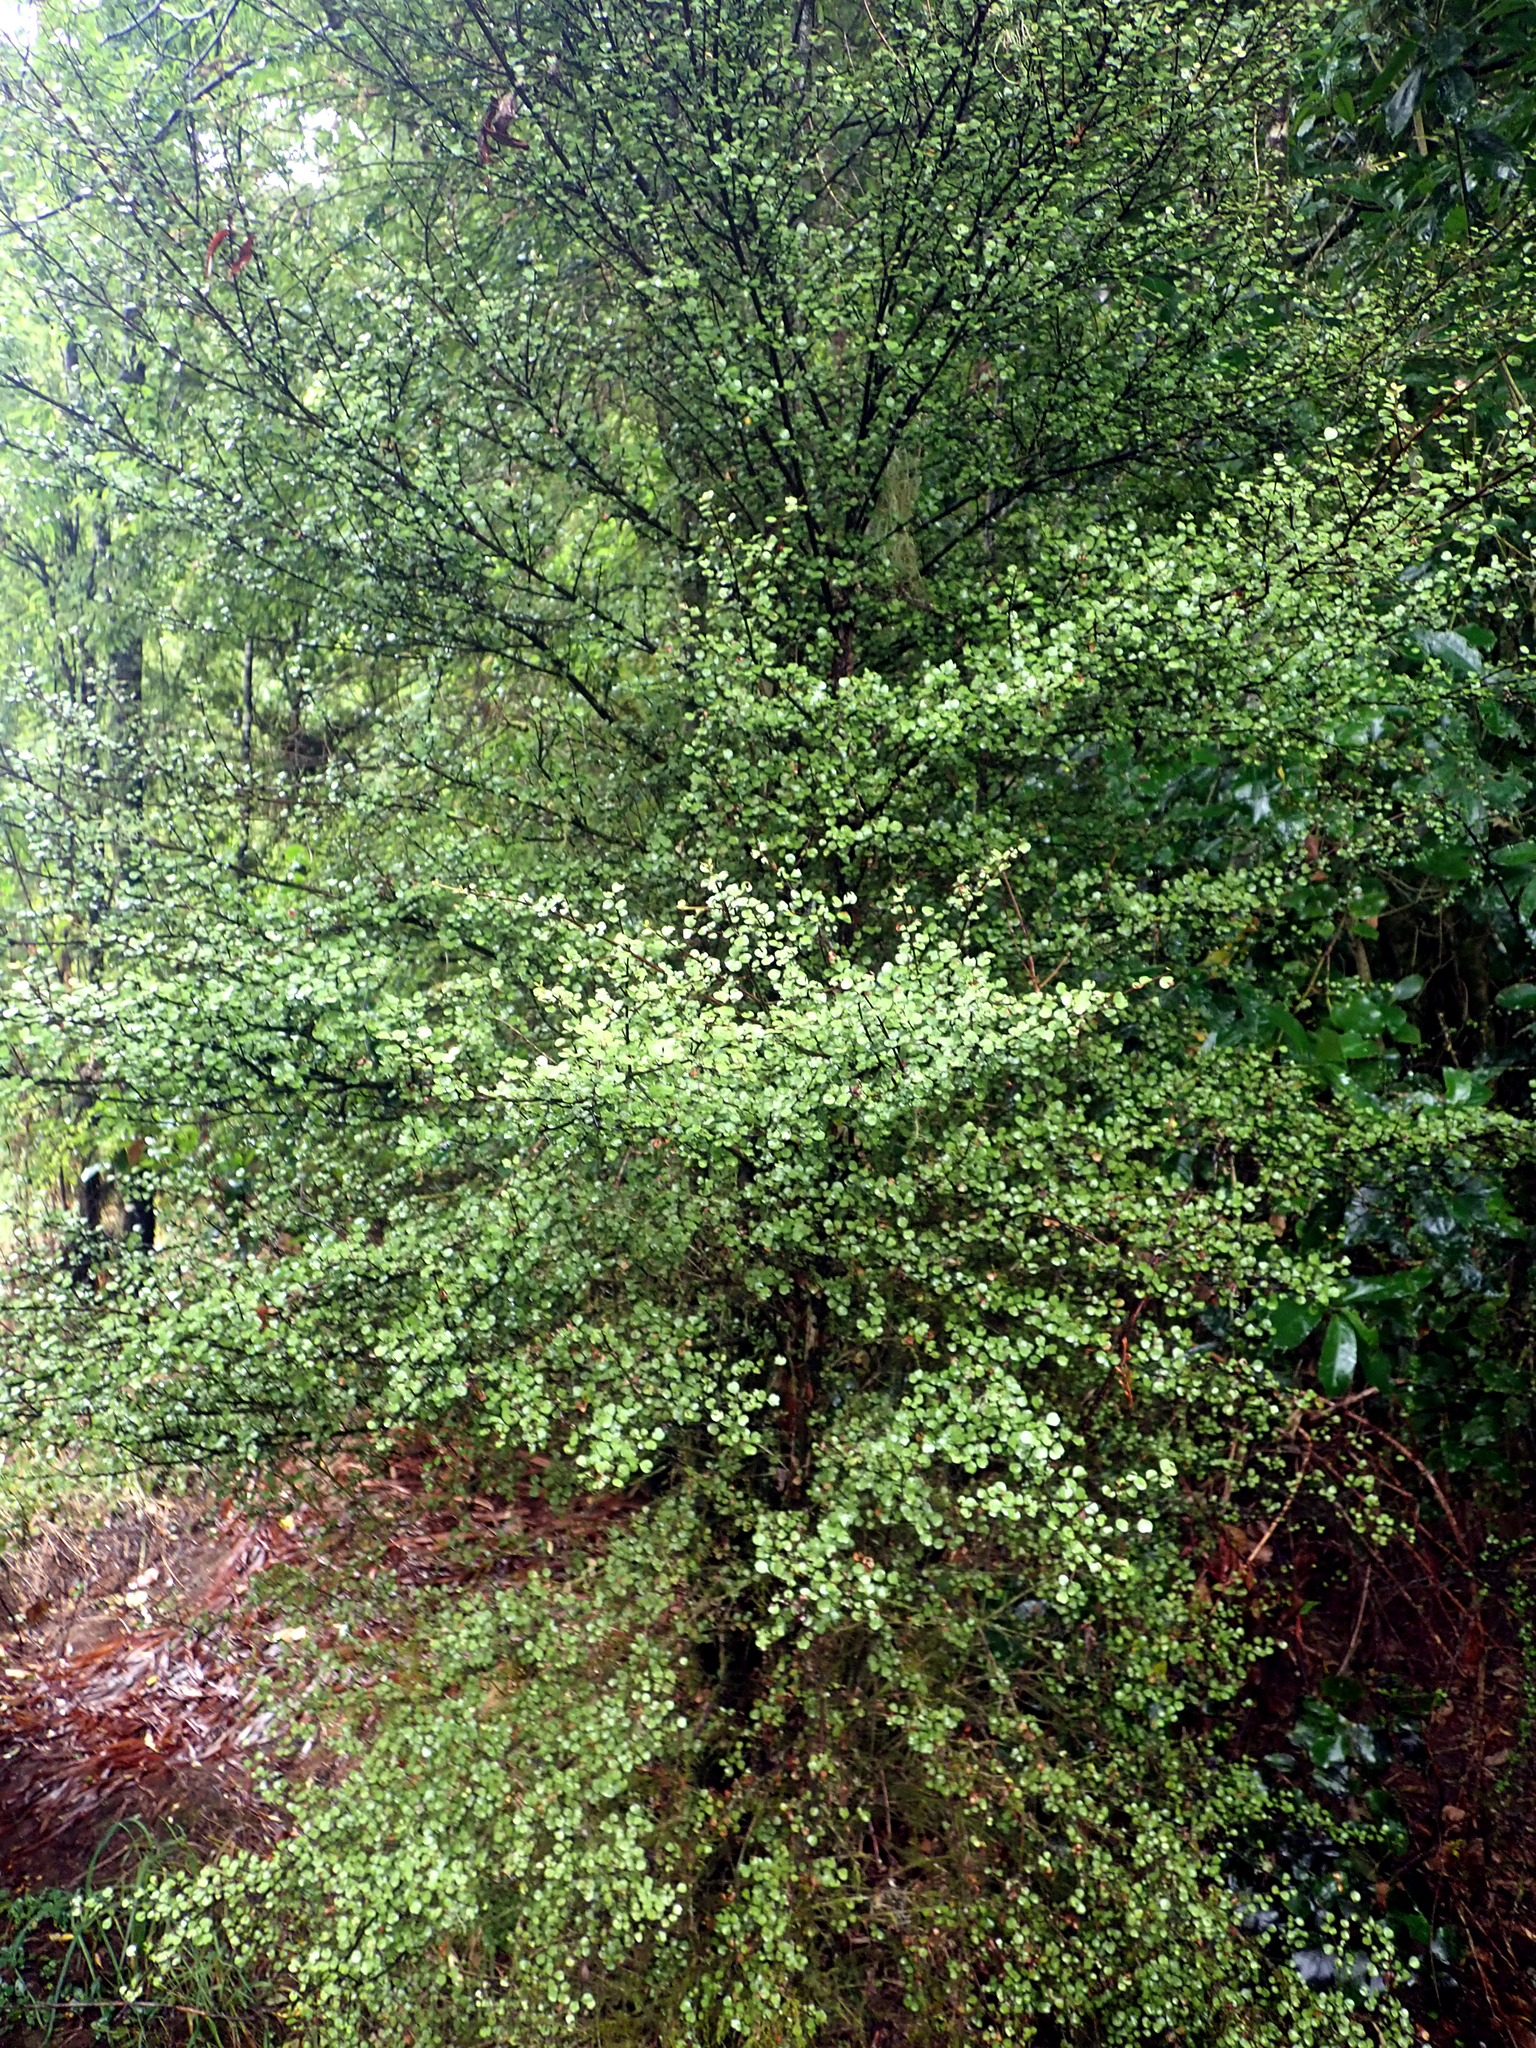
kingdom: Plantae
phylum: Tracheophyta
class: Magnoliopsida
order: Myrtales
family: Myrtaceae
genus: Lophomyrtus
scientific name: Lophomyrtus obcordata
